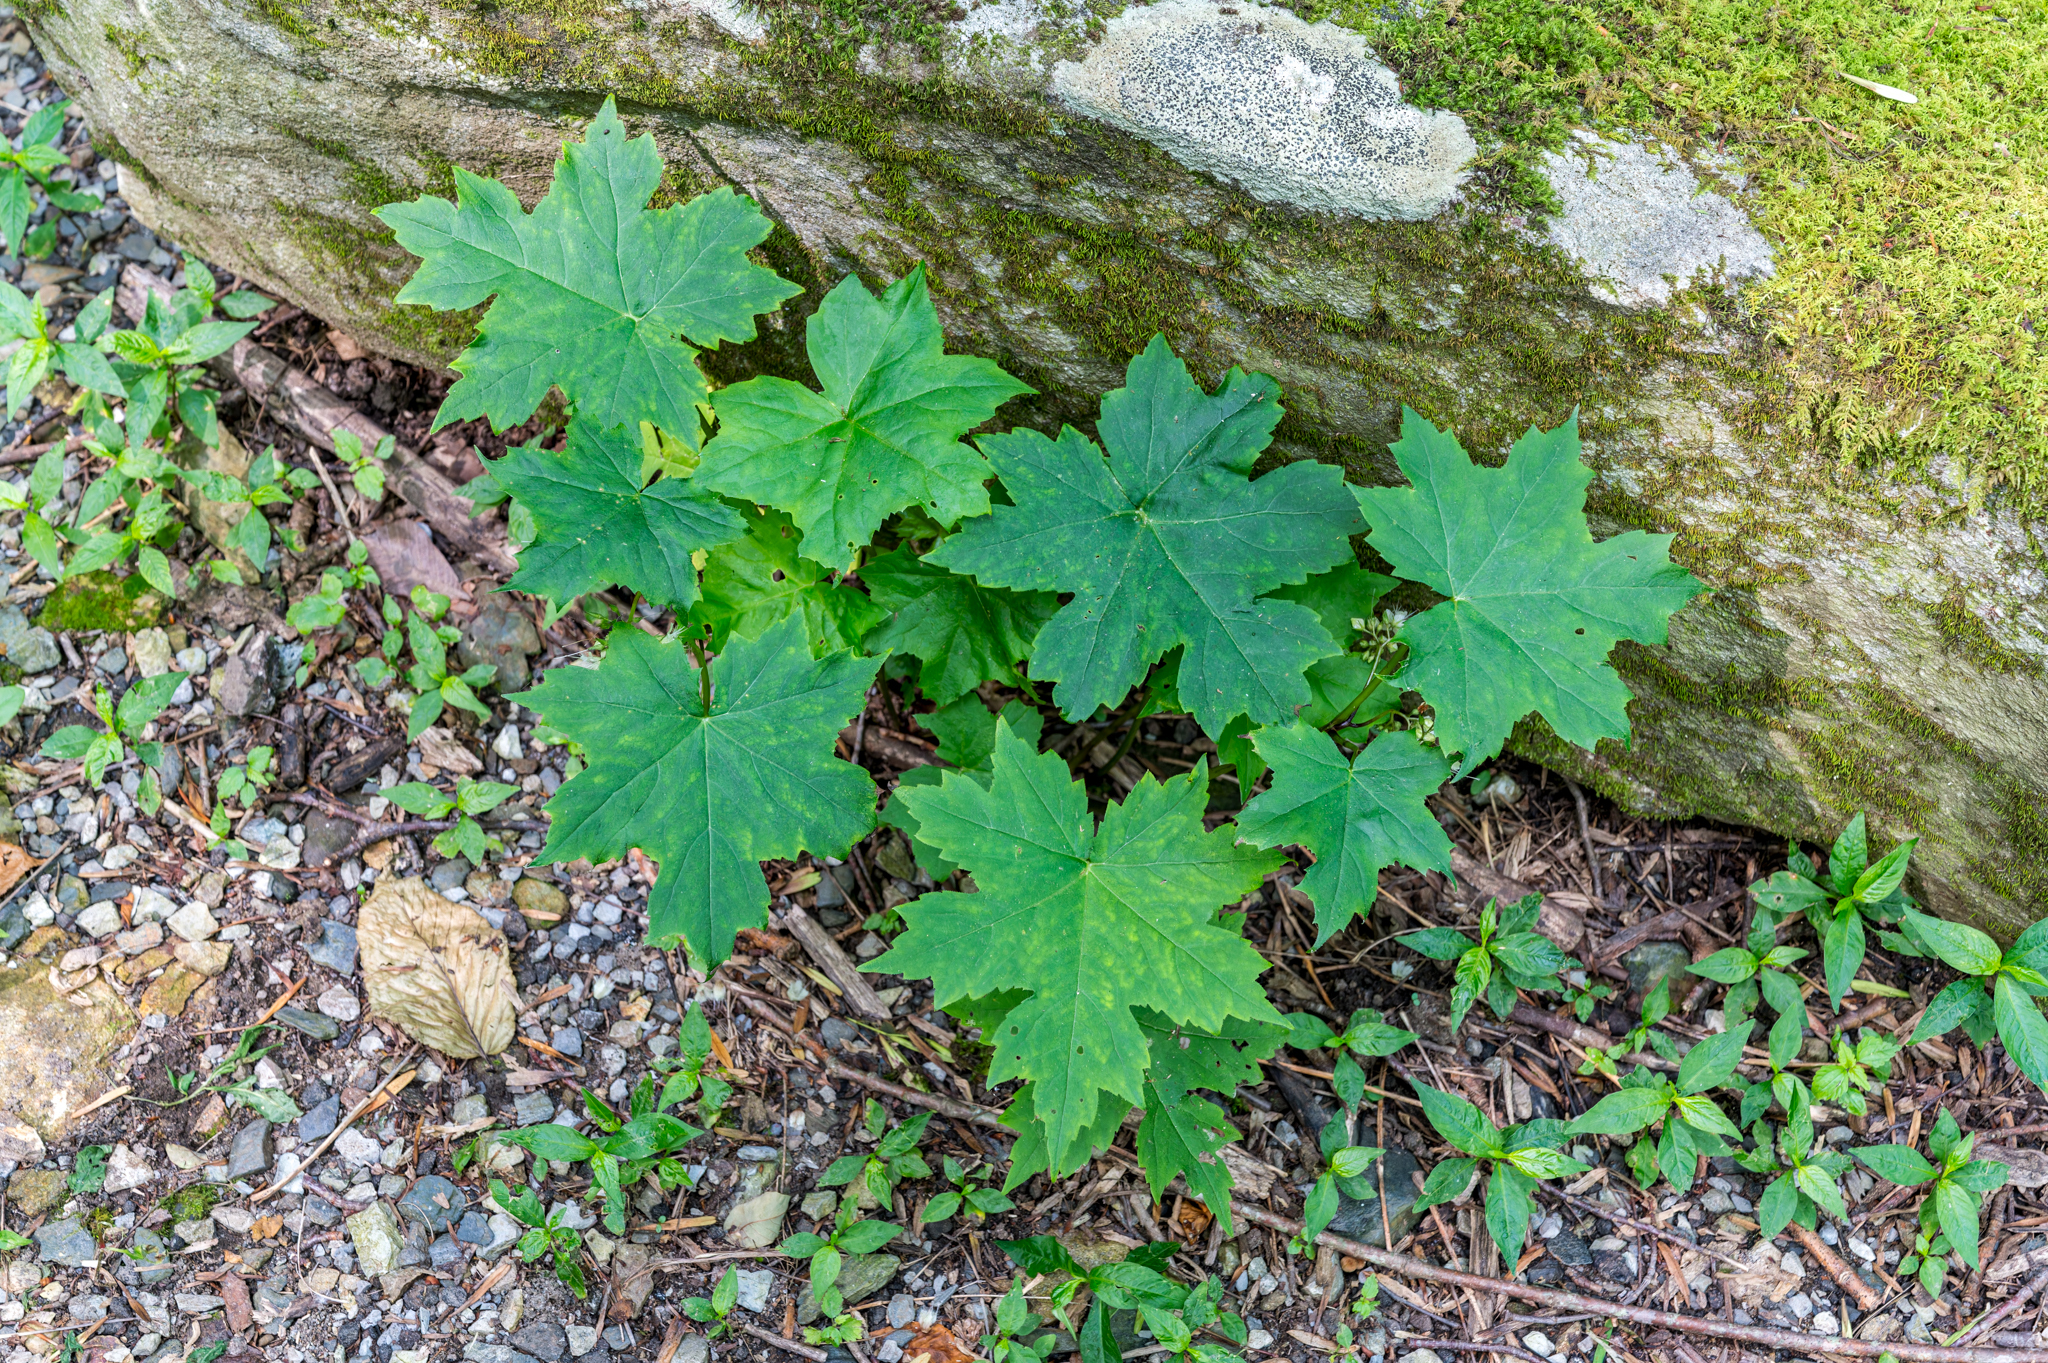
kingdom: Plantae
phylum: Tracheophyta
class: Magnoliopsida
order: Boraginales
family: Hydrophyllaceae
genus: Hydrophyllum
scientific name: Hydrophyllum canadense
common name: Canada waterleaf
